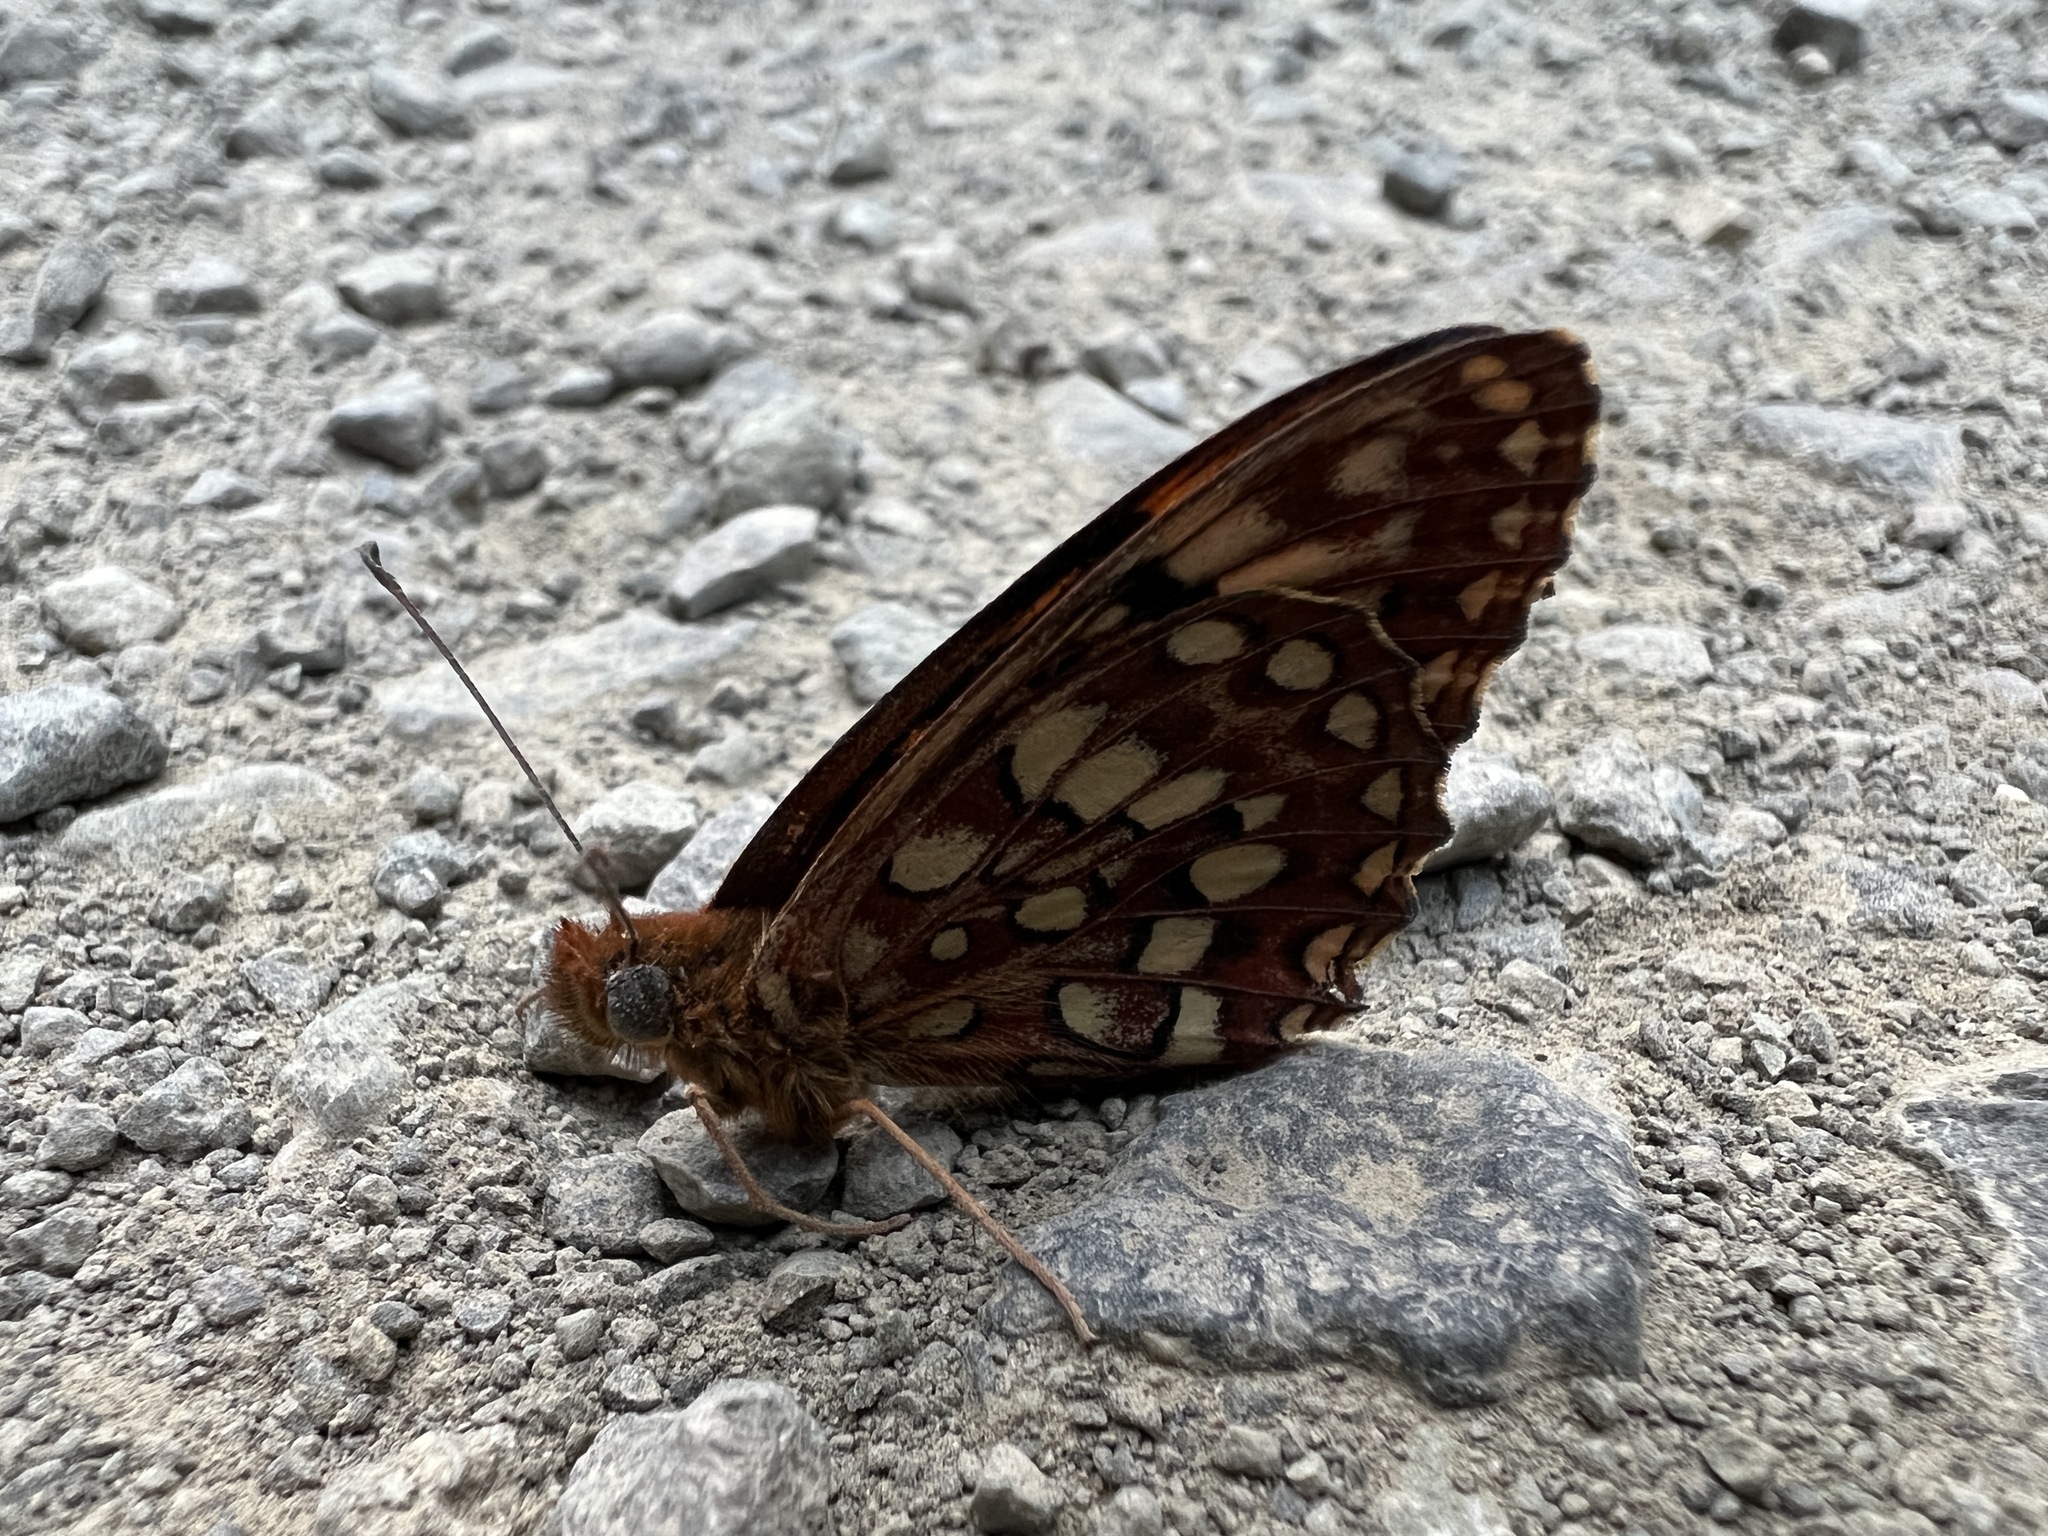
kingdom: Animalia
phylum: Arthropoda
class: Insecta
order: Lepidoptera
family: Nymphalidae
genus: Speyeria
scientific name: Speyeria hydaspe
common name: Hydaspe fritillary
